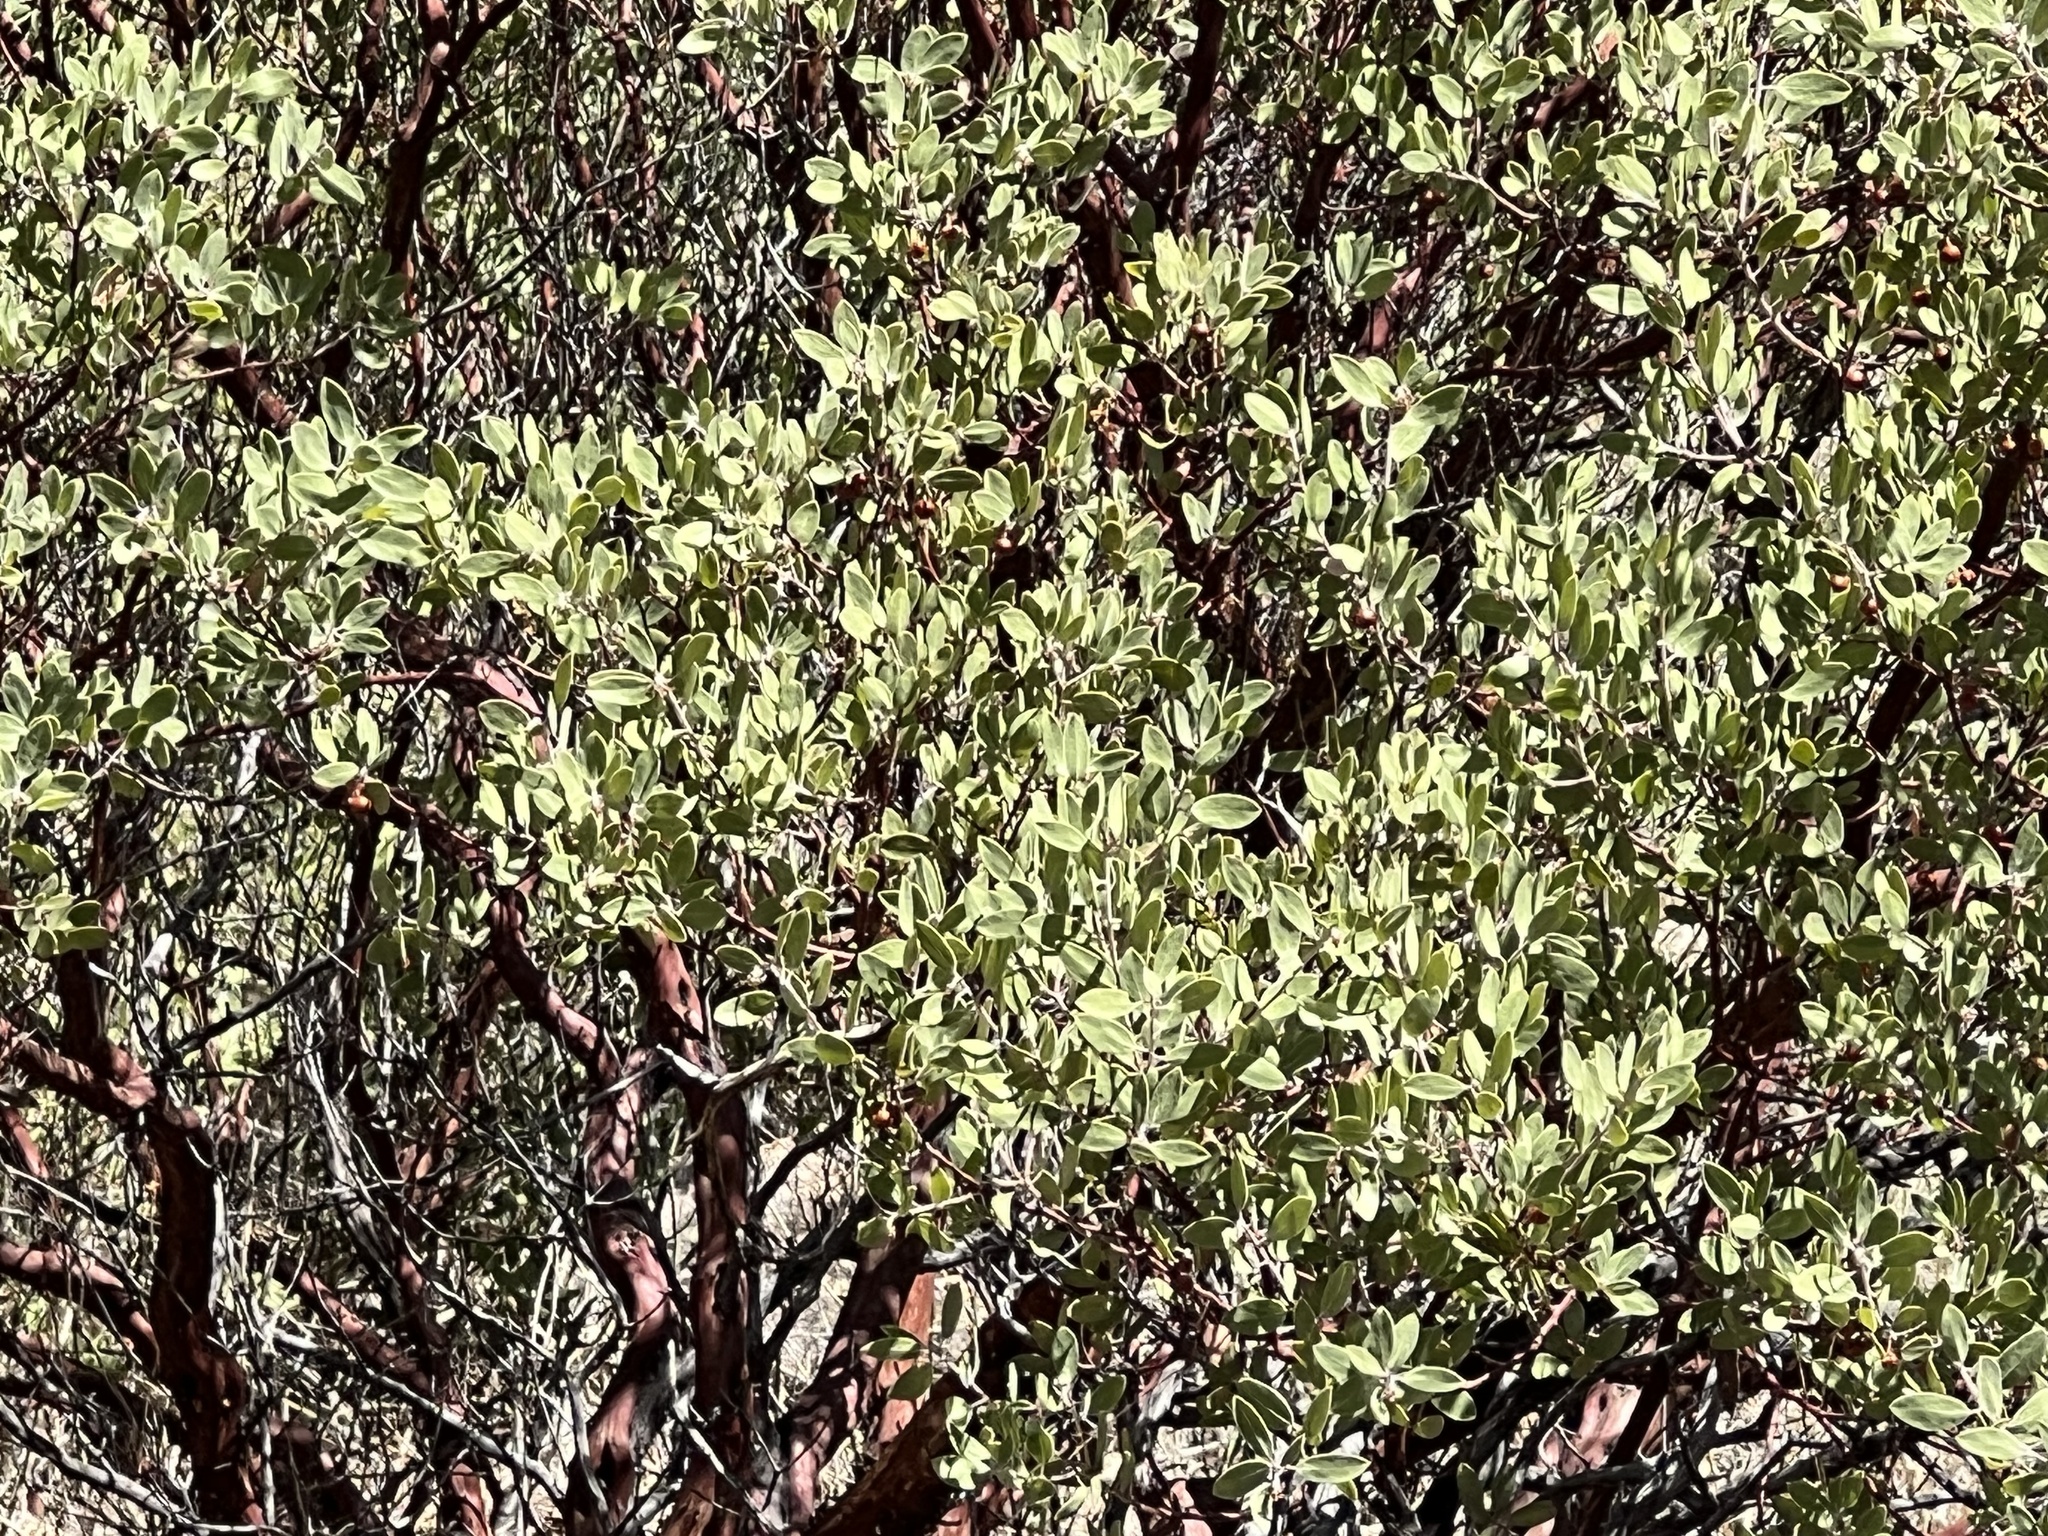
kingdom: Plantae
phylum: Tracheophyta
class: Magnoliopsida
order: Ericales
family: Ericaceae
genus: Arctostaphylos
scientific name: Arctostaphylos pungens
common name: Mexican manzanita
